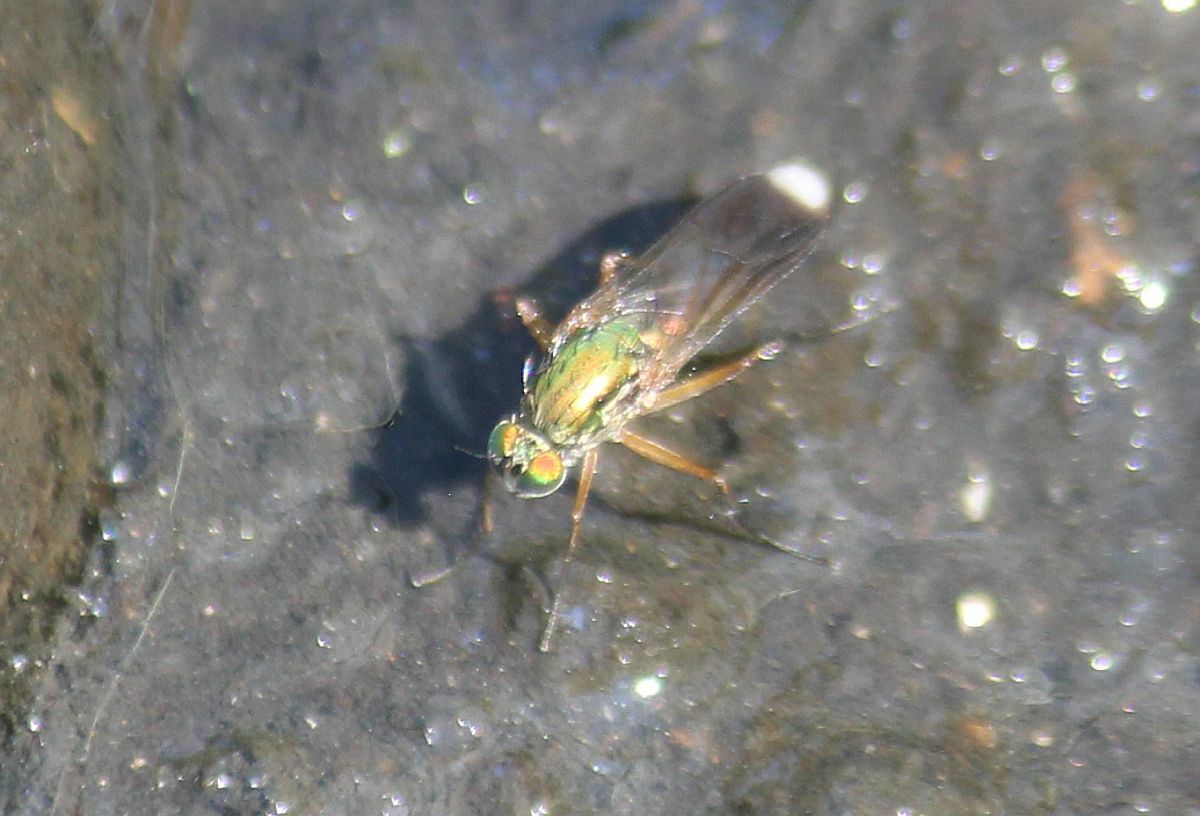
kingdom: Animalia
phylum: Arthropoda
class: Insecta
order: Diptera
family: Dolichopodidae
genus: Poecilobothrus
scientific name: Poecilobothrus nobilitatus
